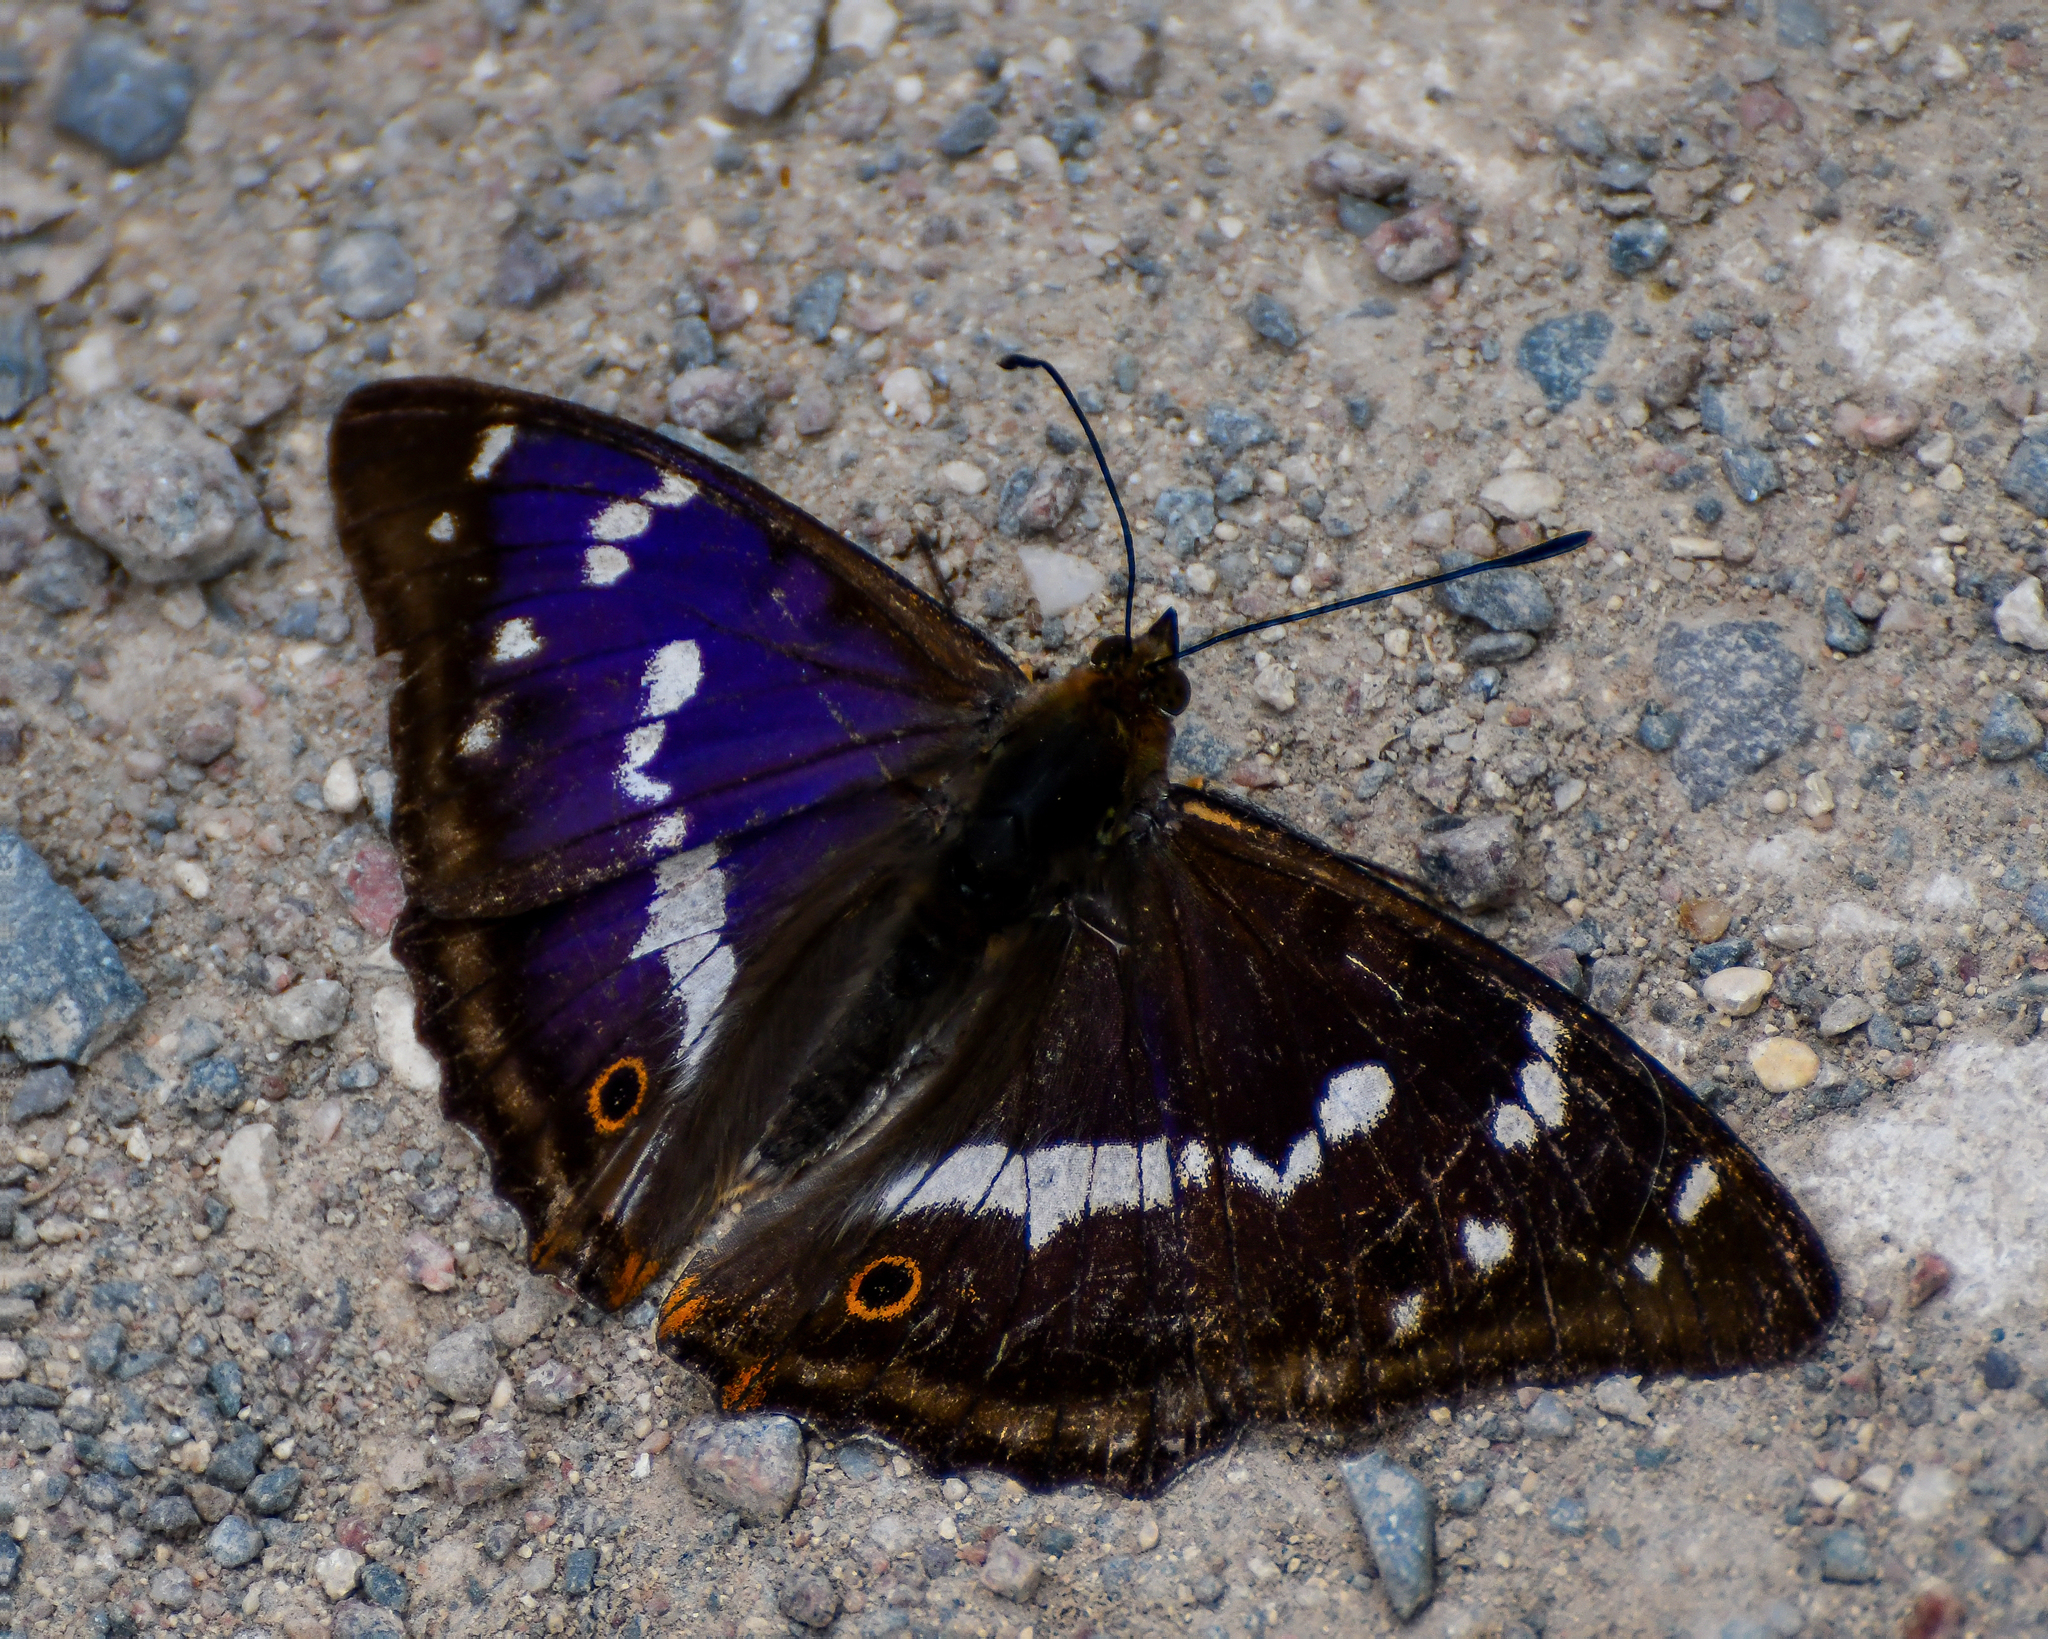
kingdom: Animalia
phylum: Arthropoda
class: Insecta
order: Lepidoptera
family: Nymphalidae
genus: Apatura
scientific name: Apatura iris
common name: Purple emperor
